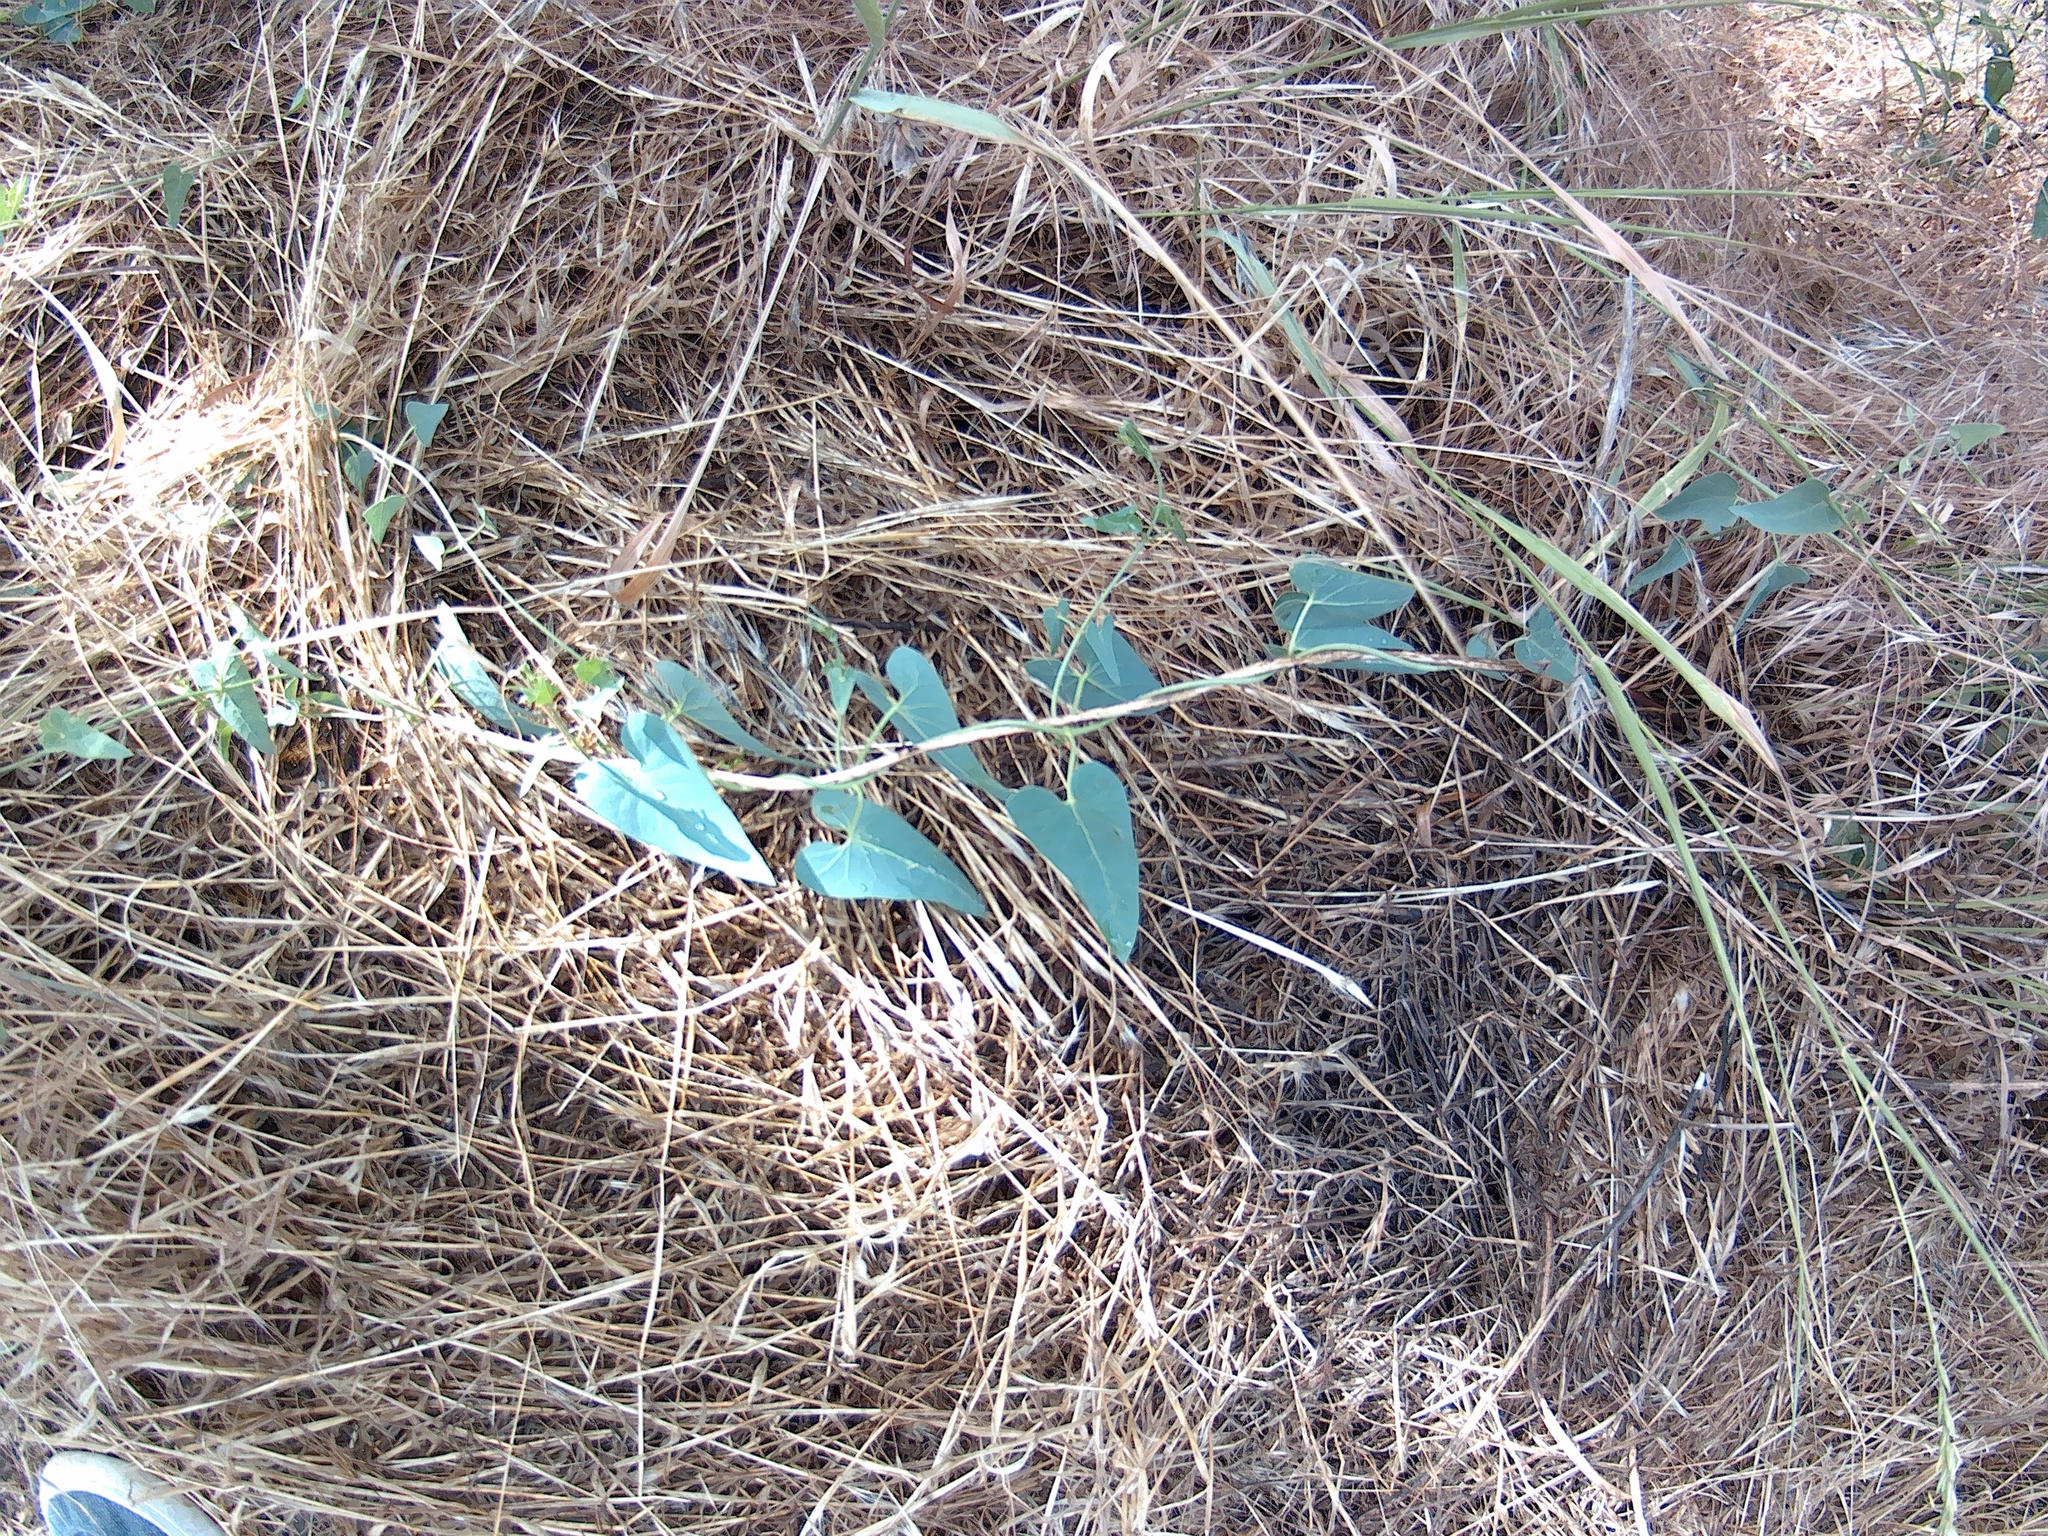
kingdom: Plantae
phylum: Tracheophyta
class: Magnoliopsida
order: Gentianales
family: Apocynaceae
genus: Cynanchum
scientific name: Cynanchum acutum
